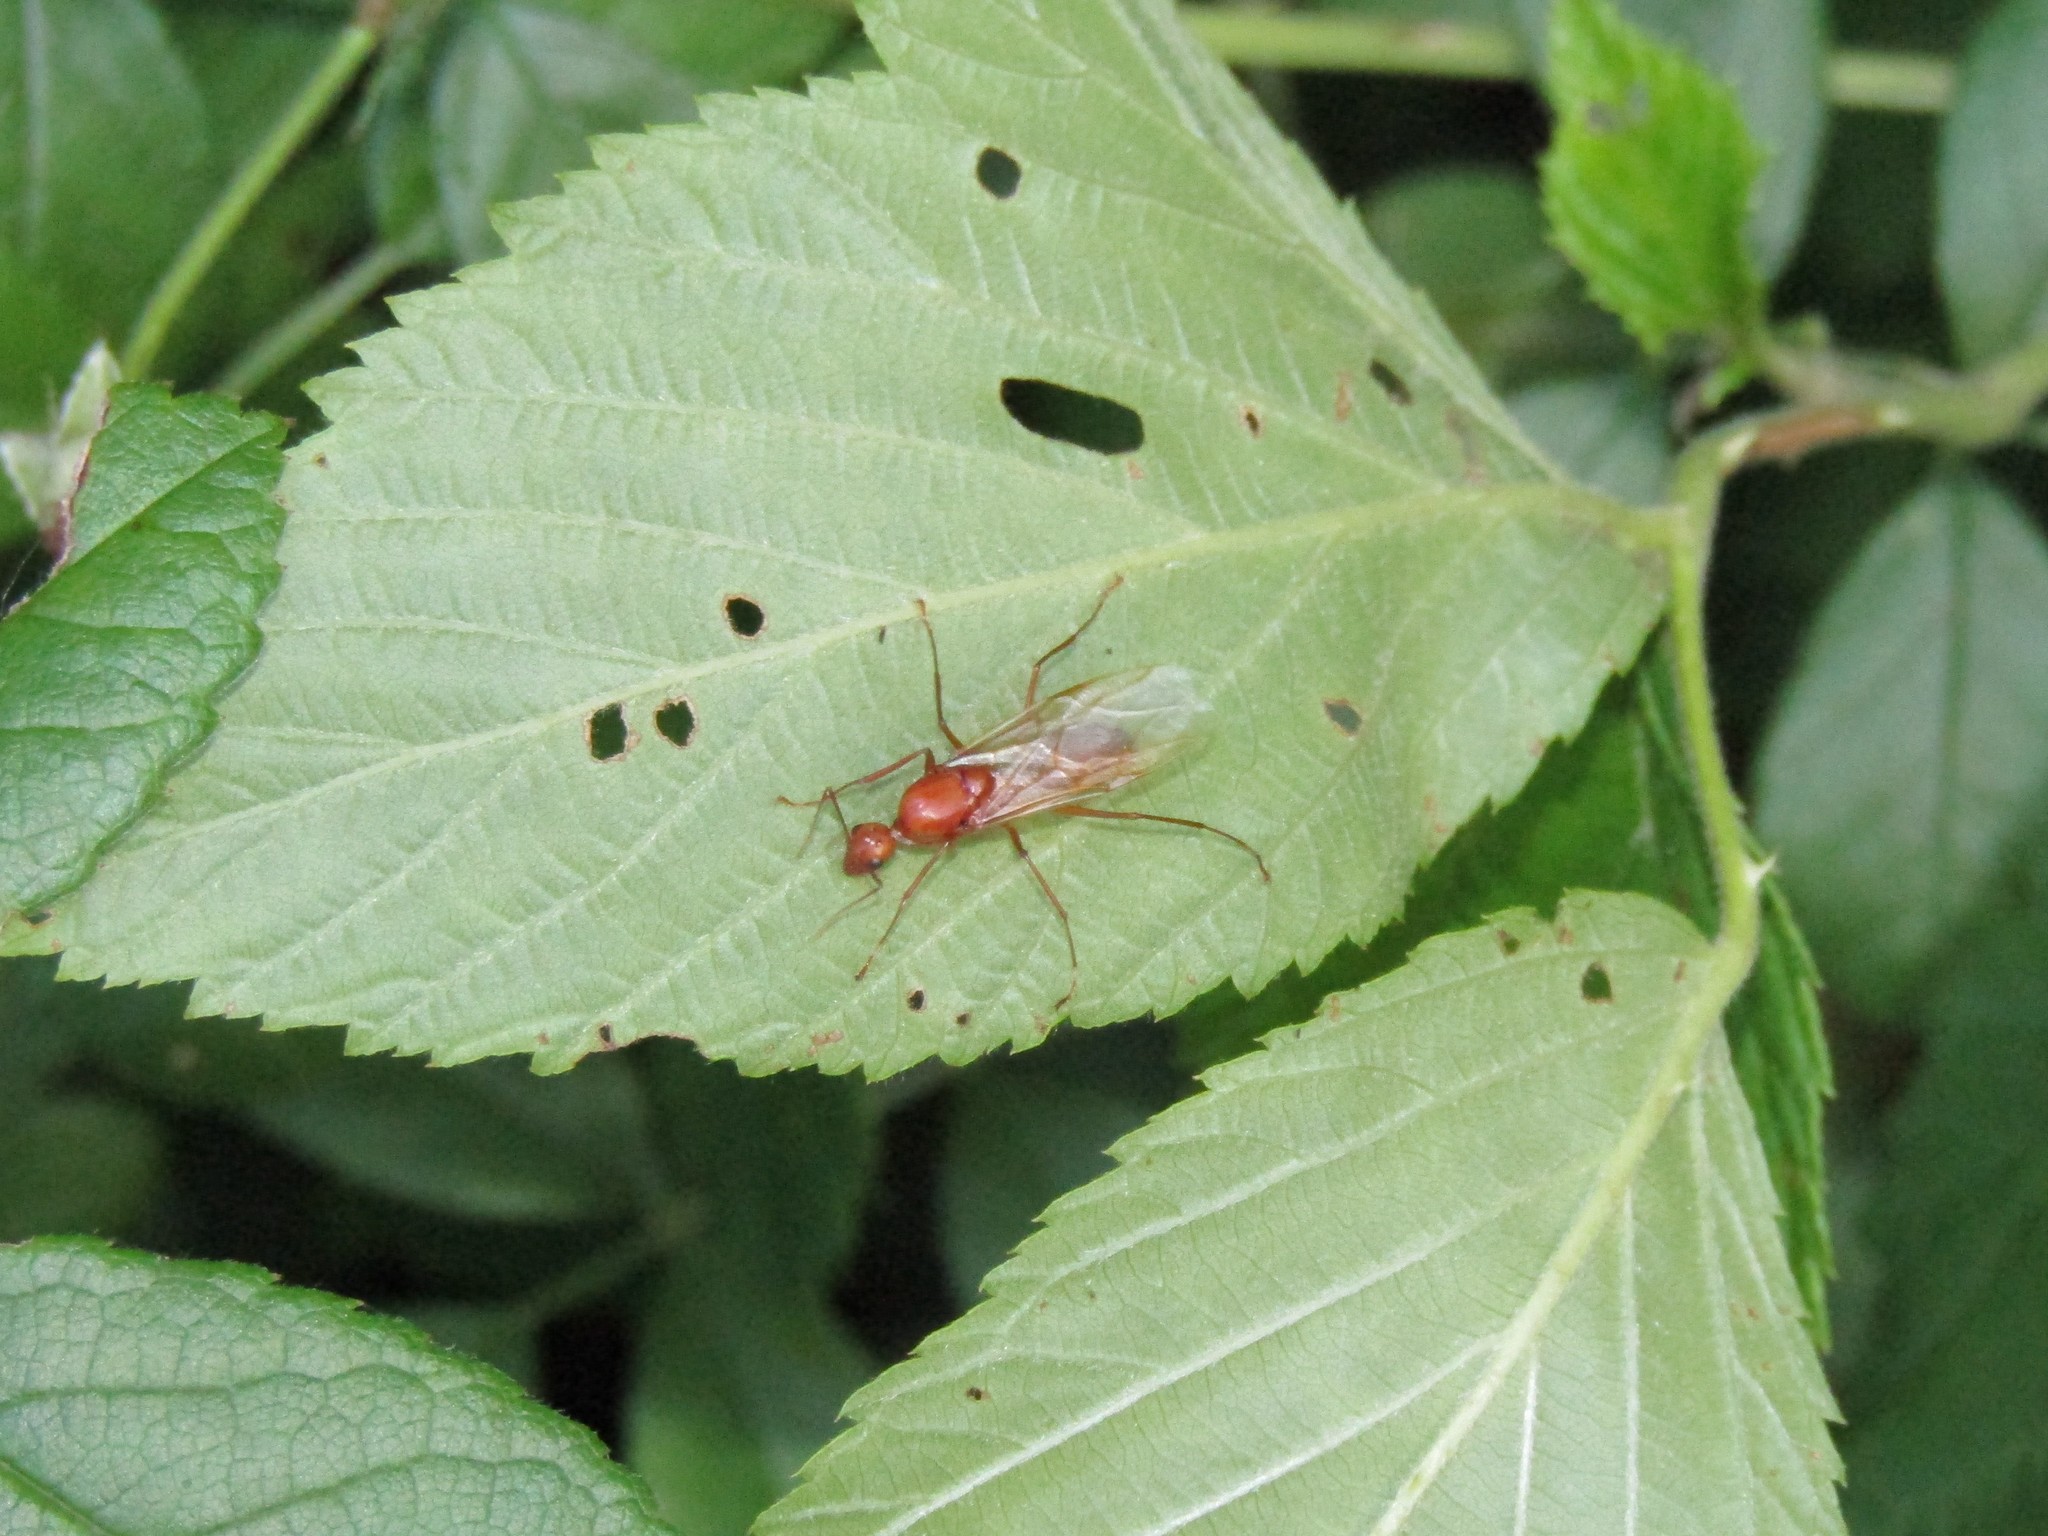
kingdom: Animalia
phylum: Arthropoda
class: Insecta
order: Hymenoptera
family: Formicidae
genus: Camponotus
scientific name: Camponotus castaneus
